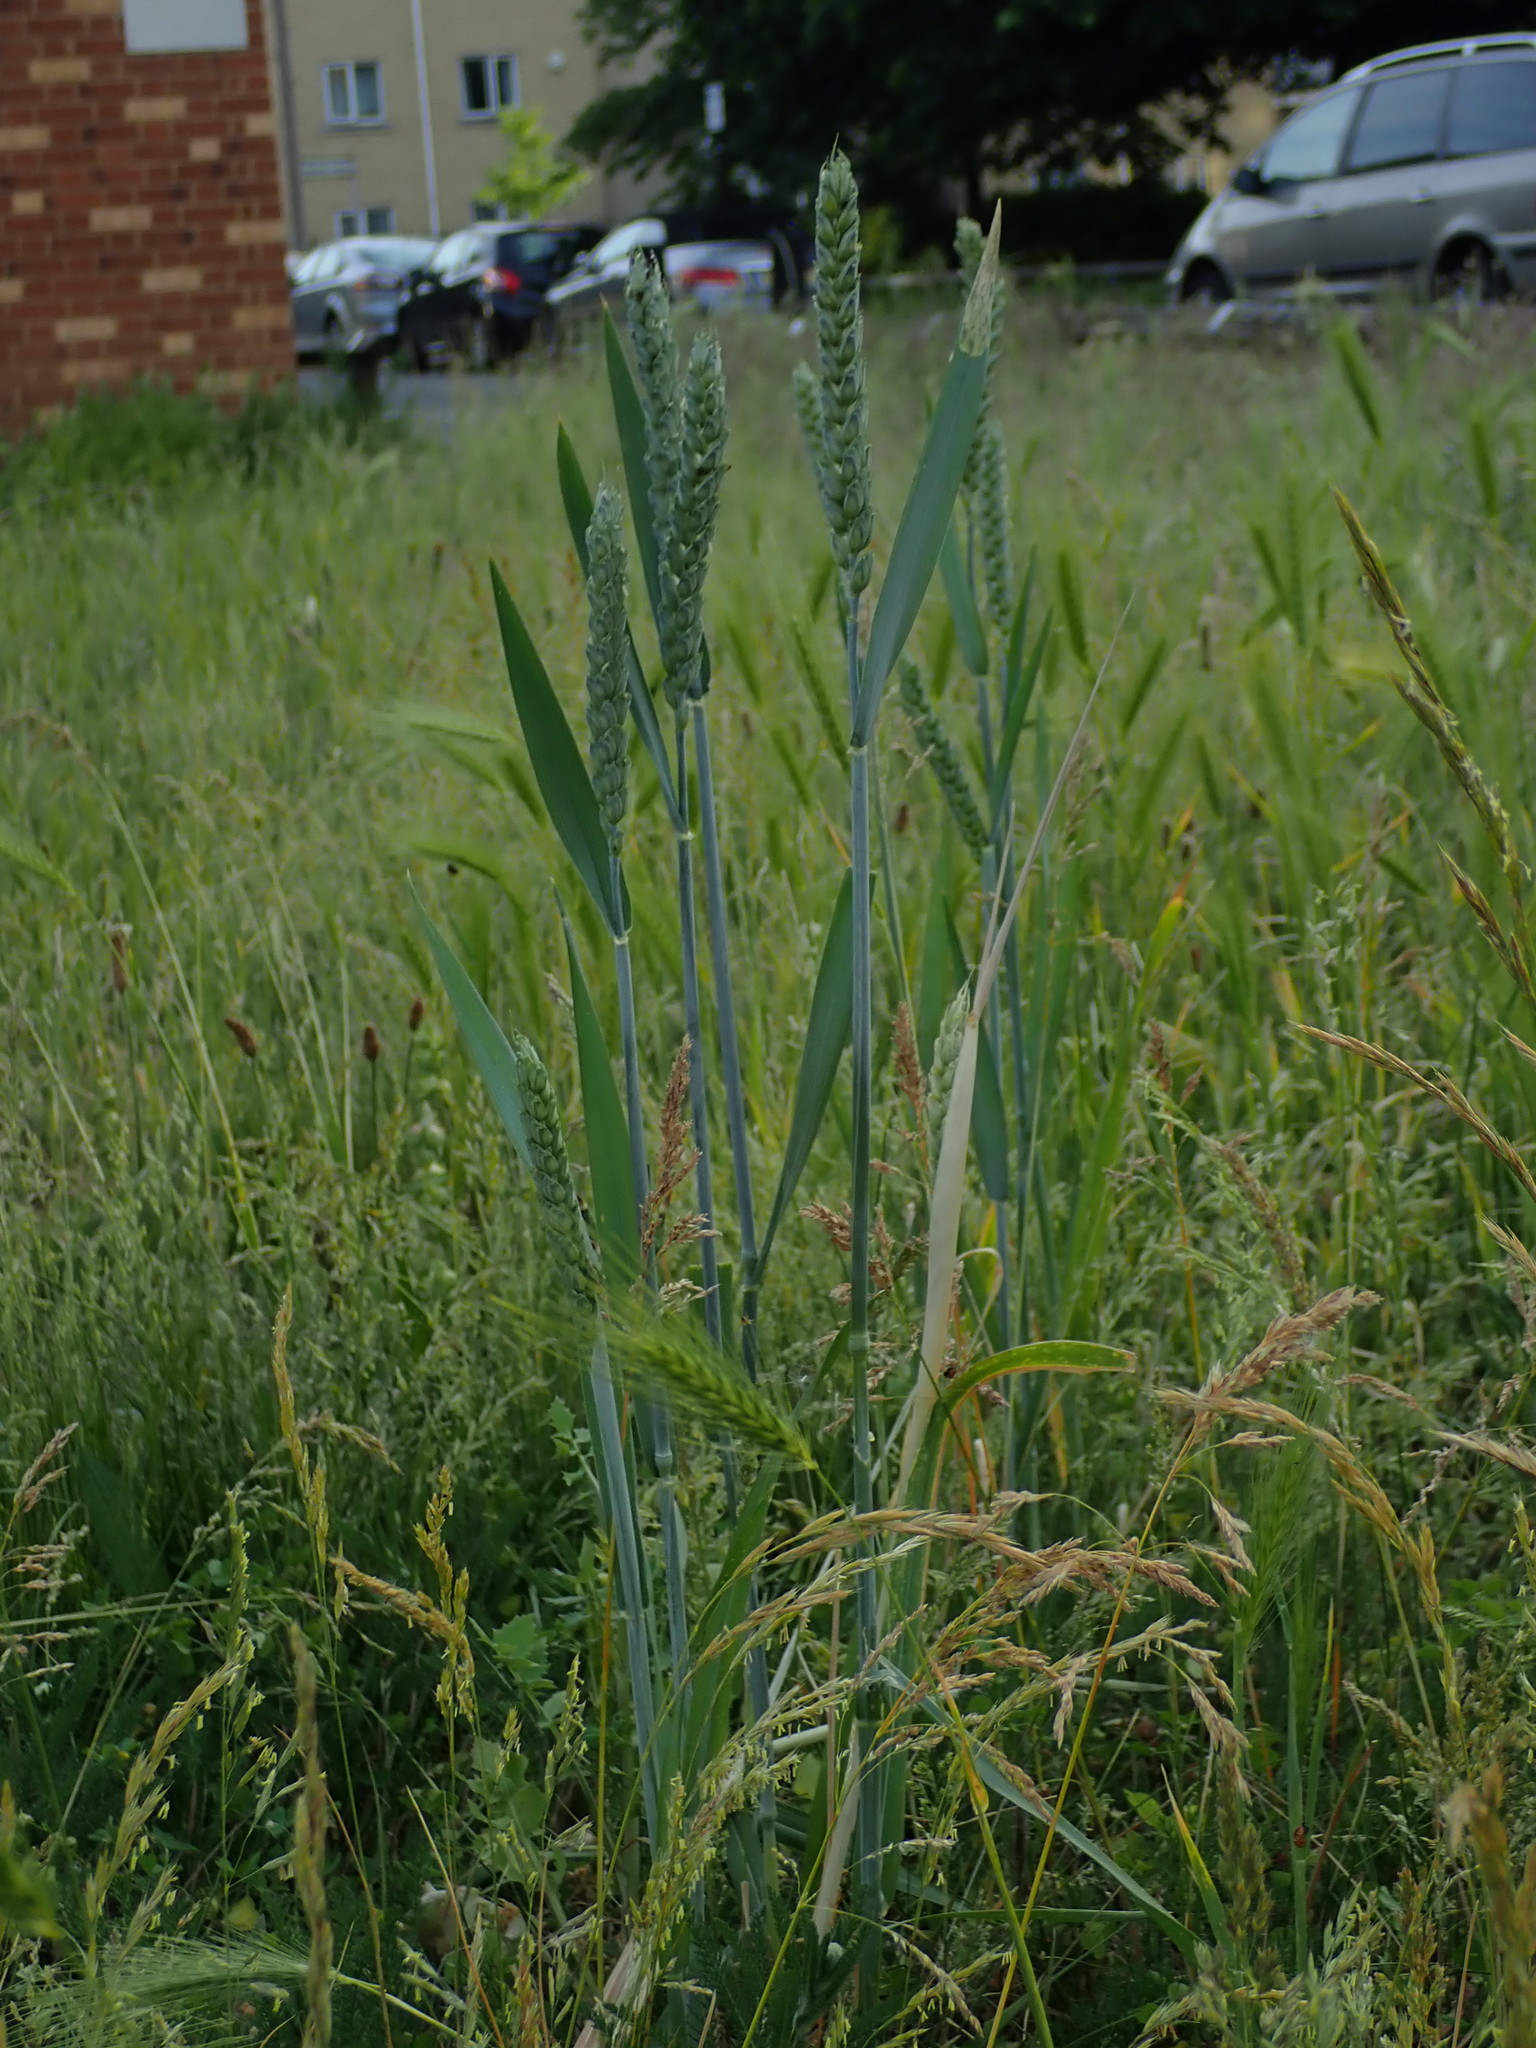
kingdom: Plantae
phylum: Tracheophyta
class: Liliopsida
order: Poales
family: Poaceae
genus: Triticum
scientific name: Triticum aestivum
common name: Common wheat
